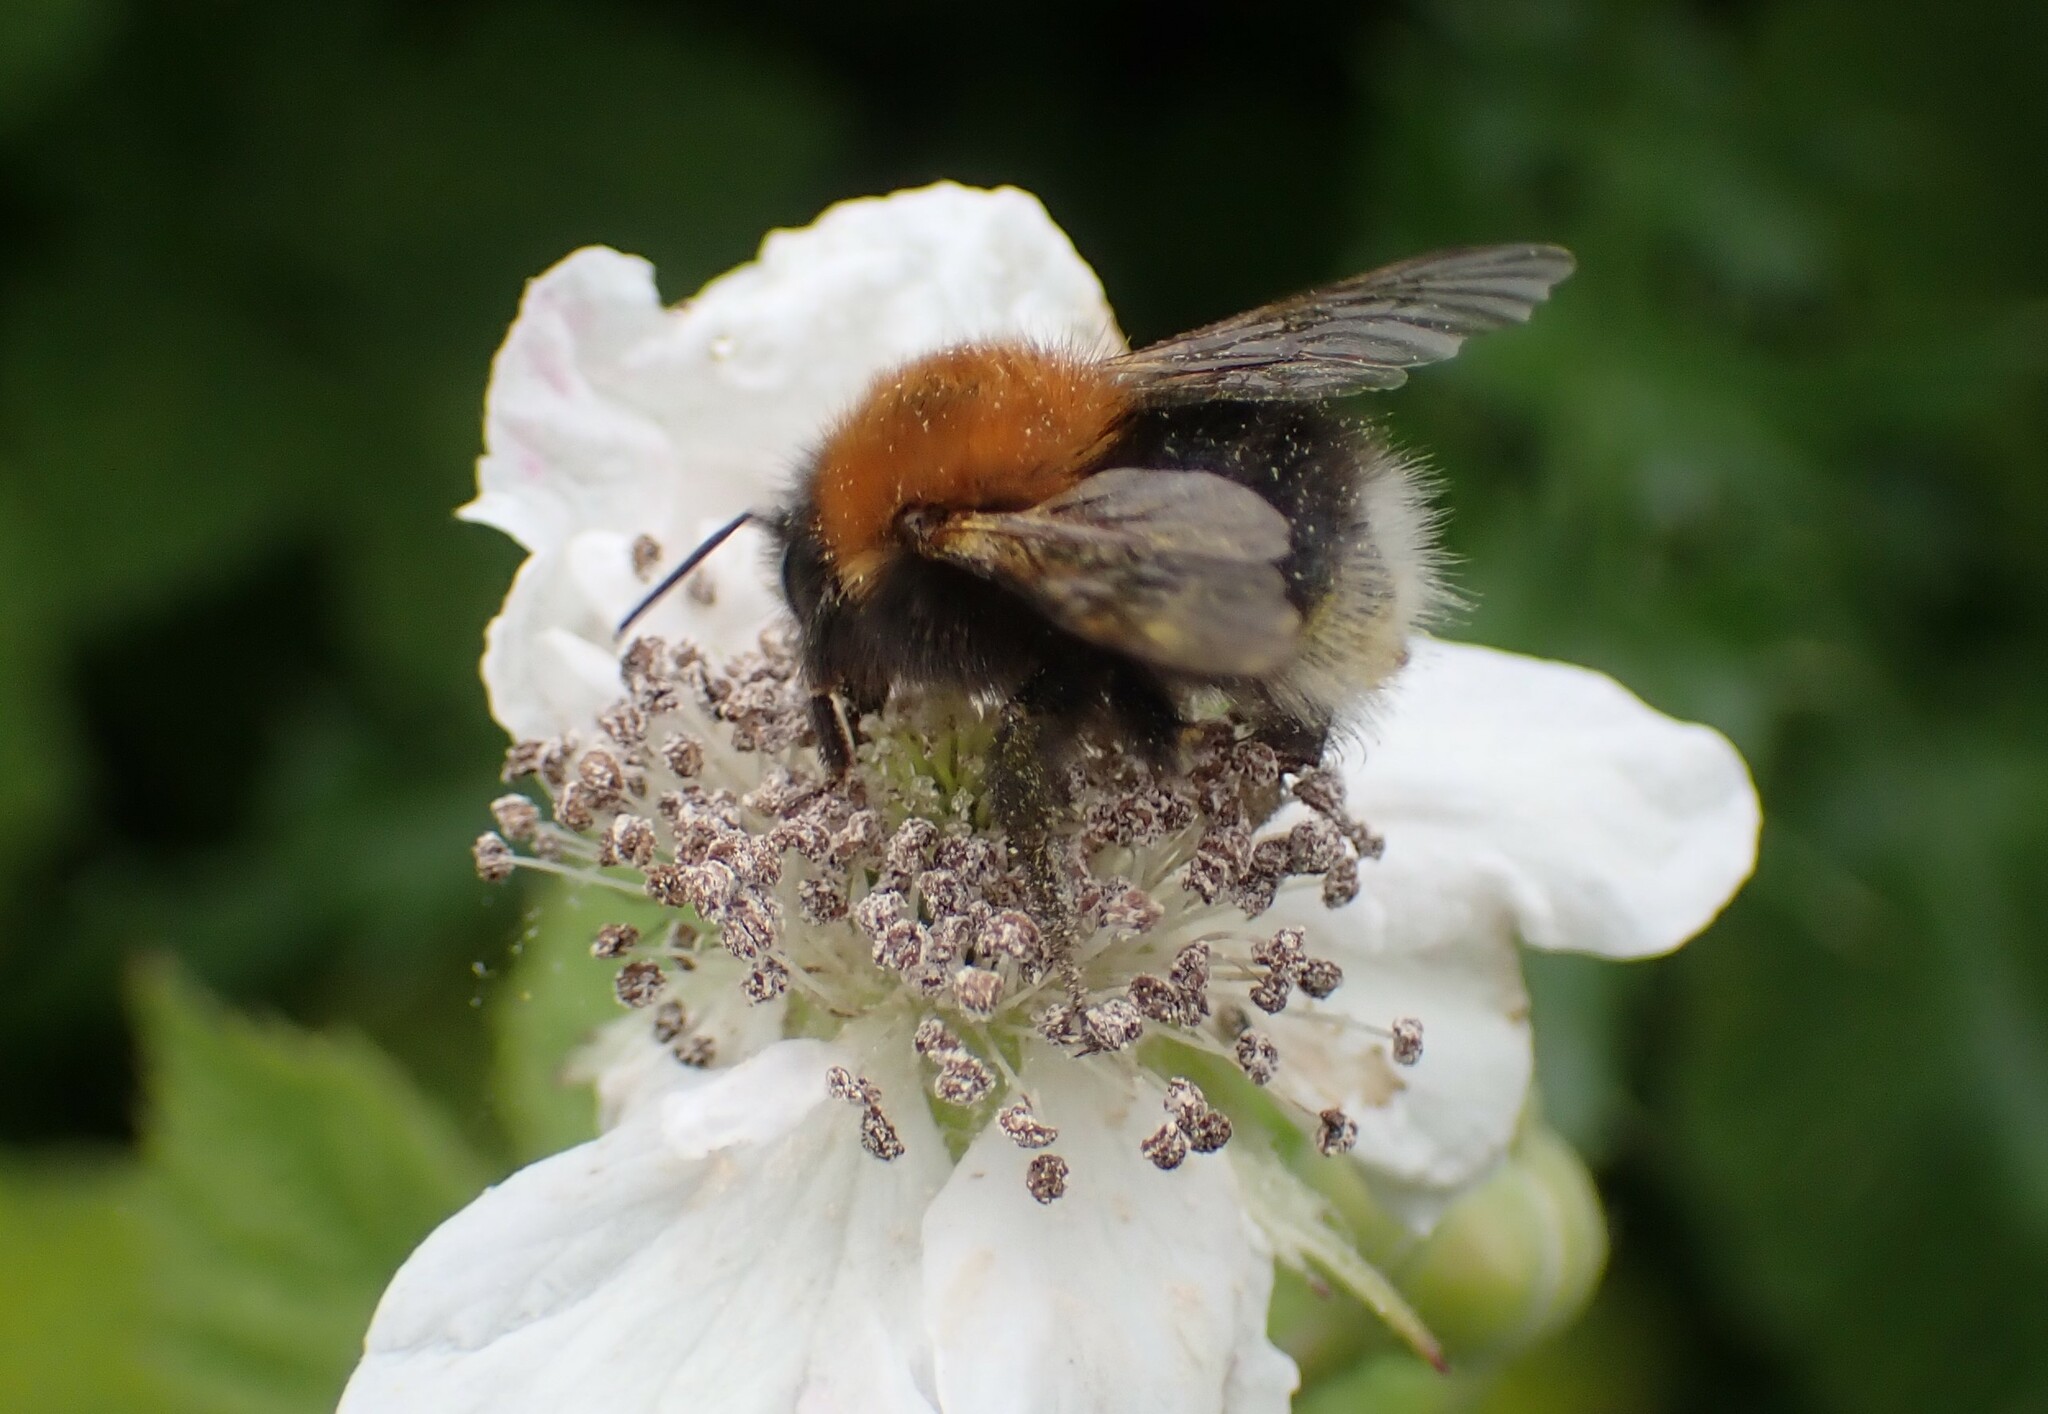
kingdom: Animalia
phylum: Arthropoda
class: Insecta
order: Hymenoptera
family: Apidae
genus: Bombus
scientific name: Bombus hypnorum
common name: New garden bumblebee
